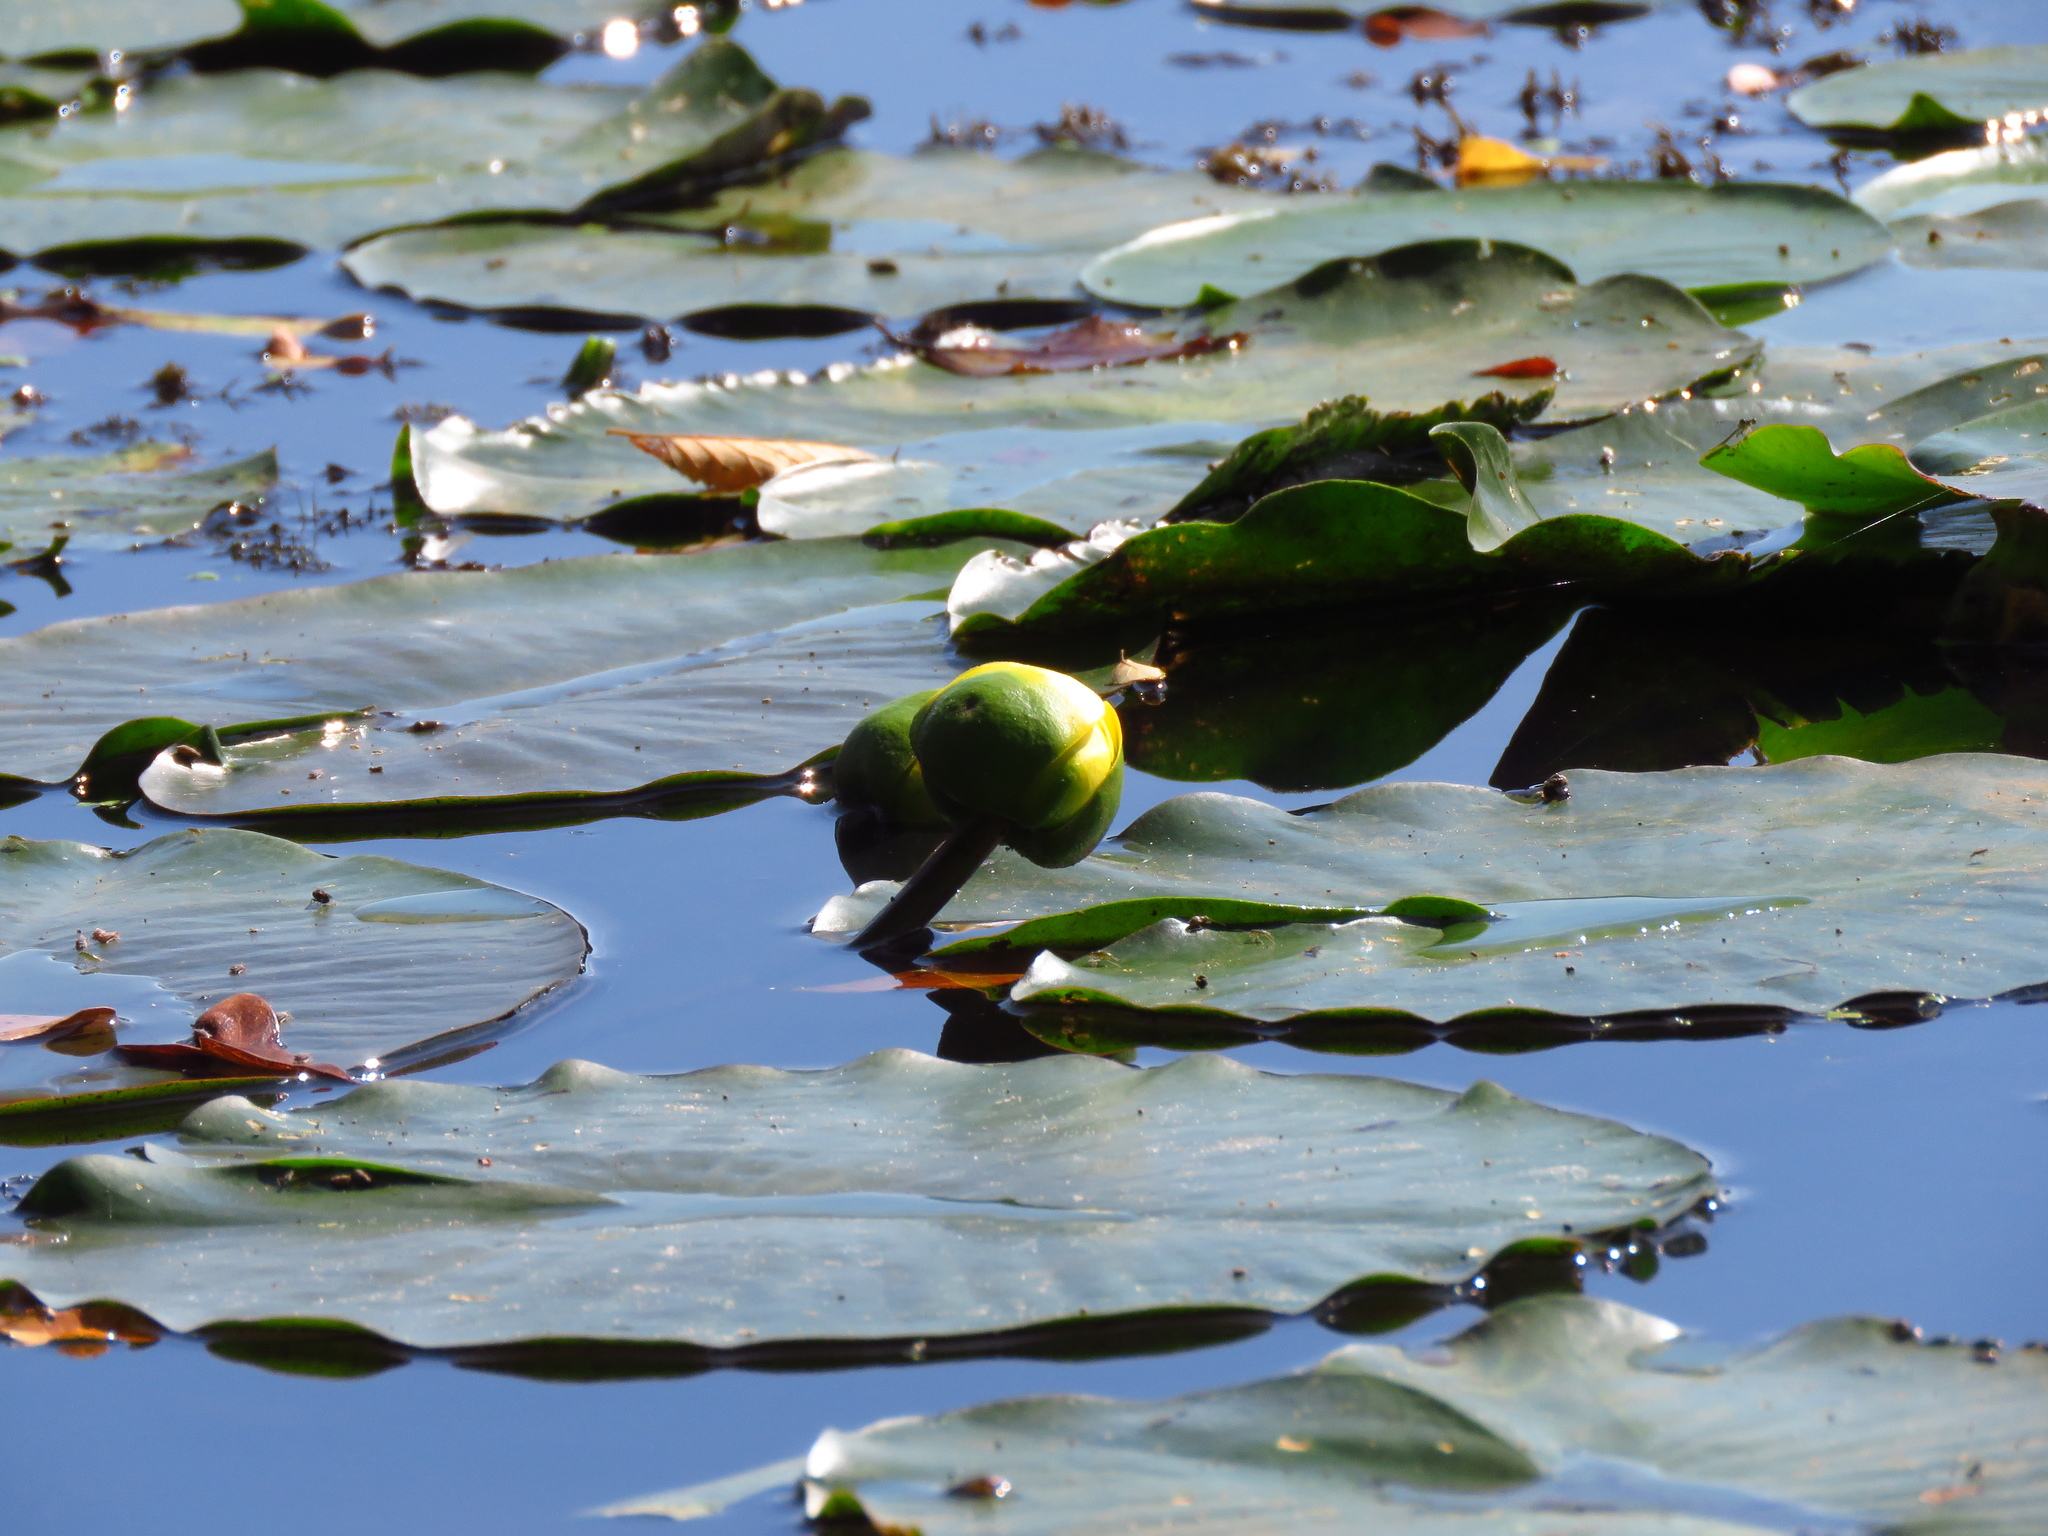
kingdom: Plantae
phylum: Tracheophyta
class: Magnoliopsida
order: Nymphaeales
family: Nymphaeaceae
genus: Nuphar
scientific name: Nuphar advena
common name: Spatter-dock
